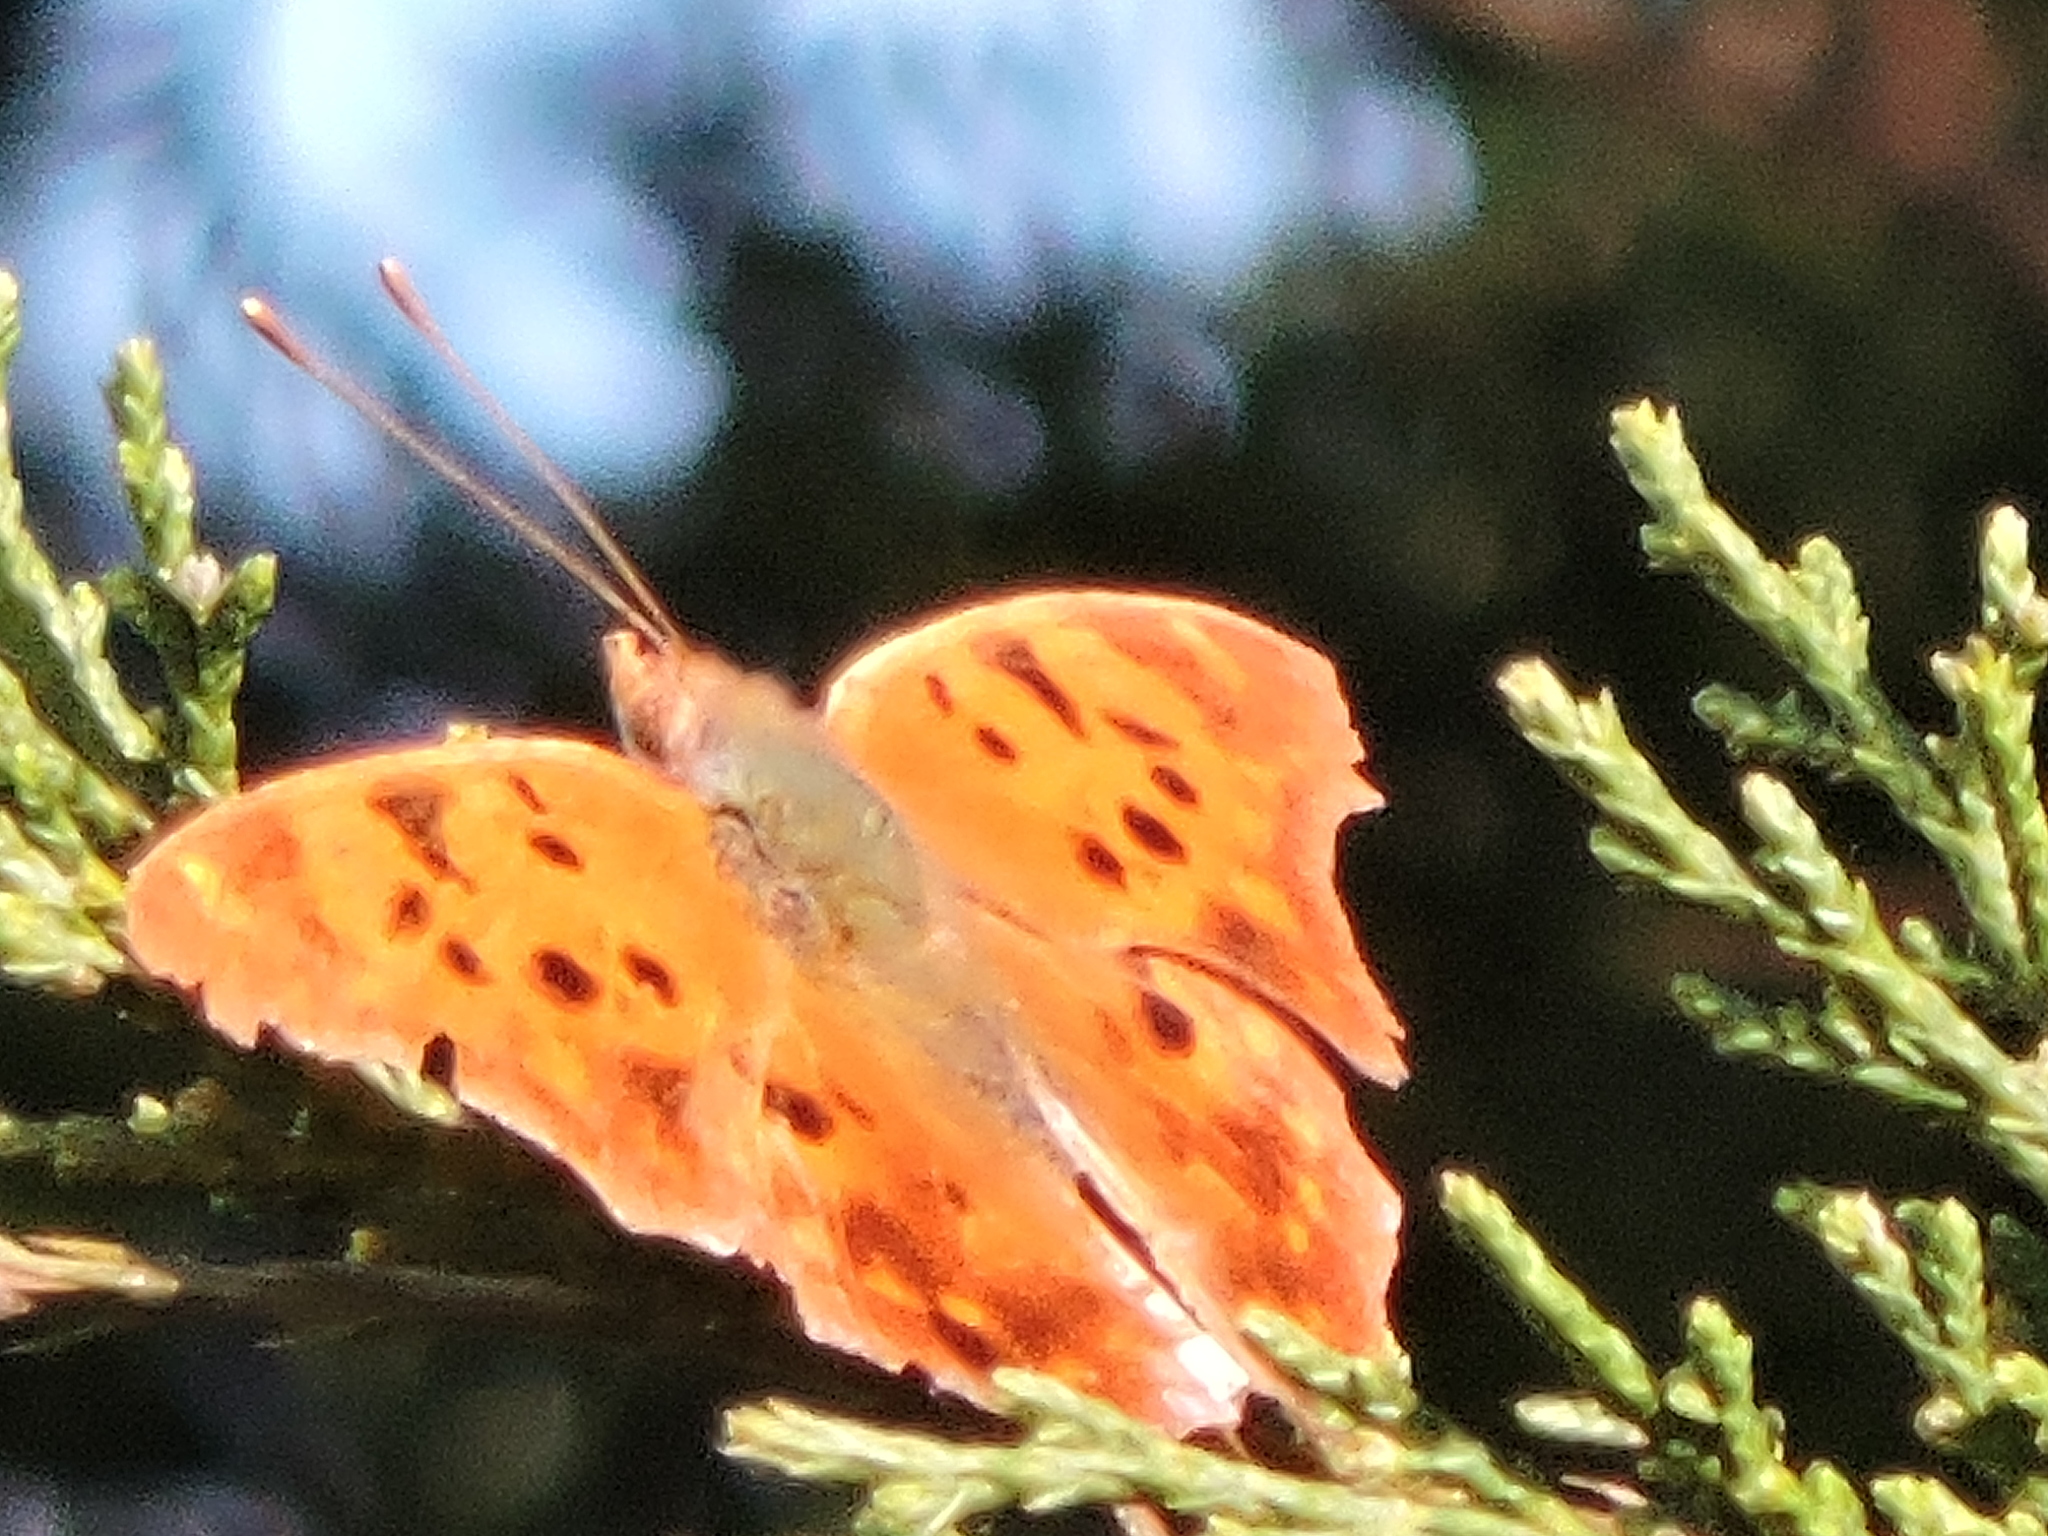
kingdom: Animalia
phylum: Arthropoda
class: Insecta
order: Lepidoptera
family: Nymphalidae
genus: Polygonia
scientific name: Polygonia interrogationis
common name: Question mark
